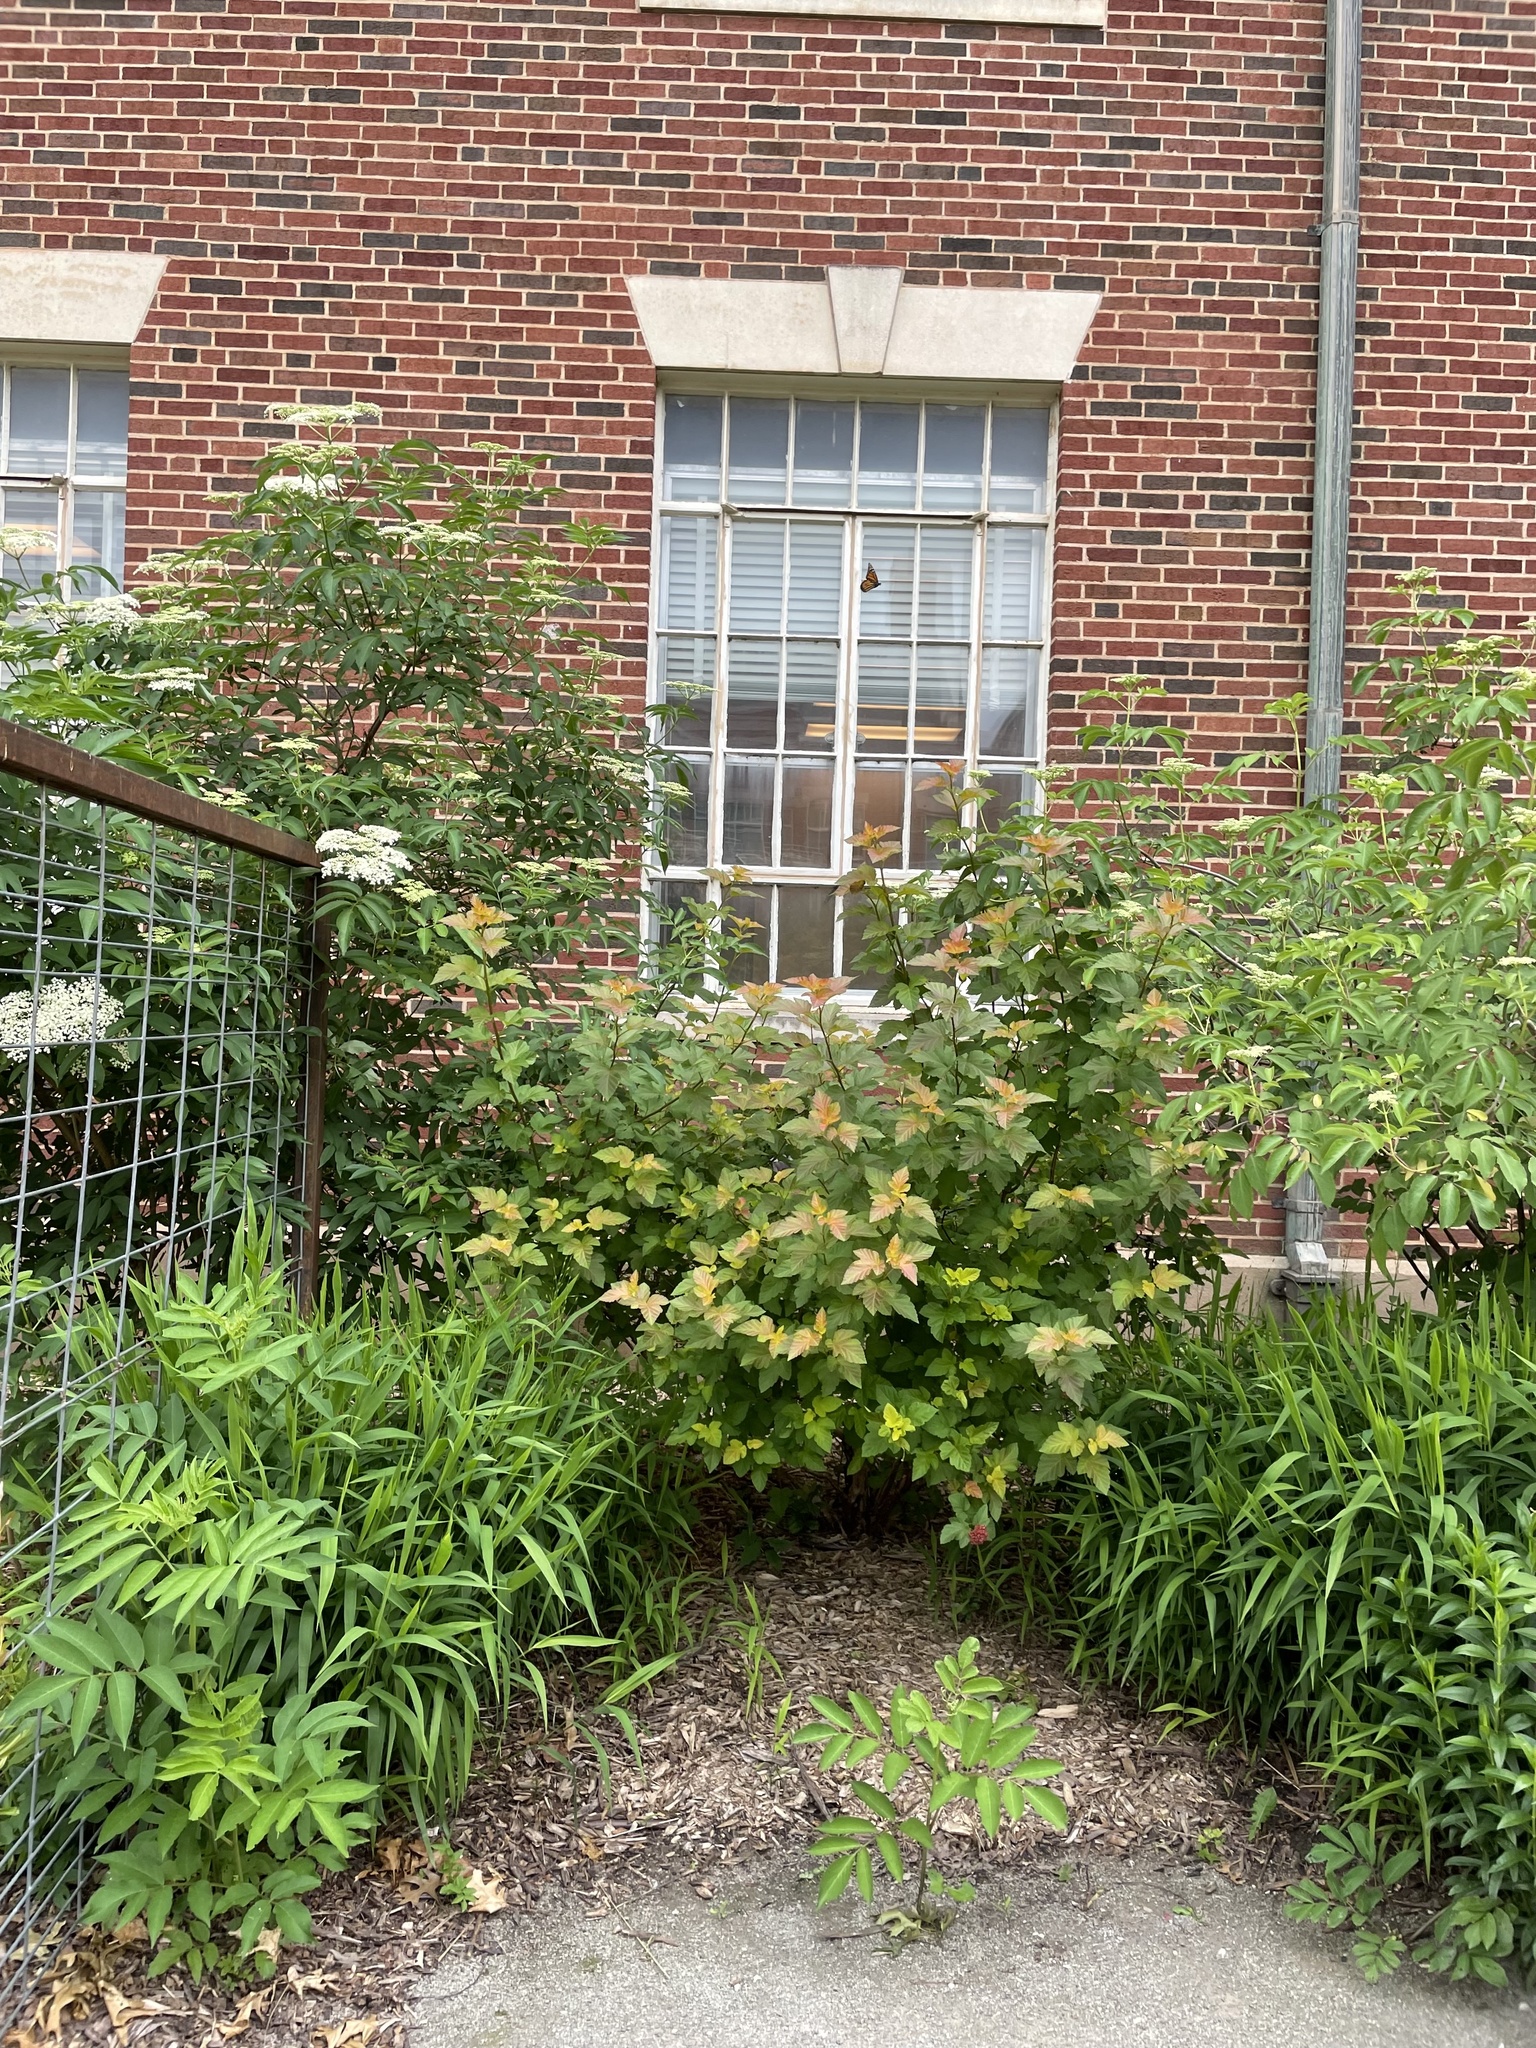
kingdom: Animalia
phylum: Arthropoda
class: Insecta
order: Lepidoptera
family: Nymphalidae
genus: Danaus
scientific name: Danaus plexippus
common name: Monarch
